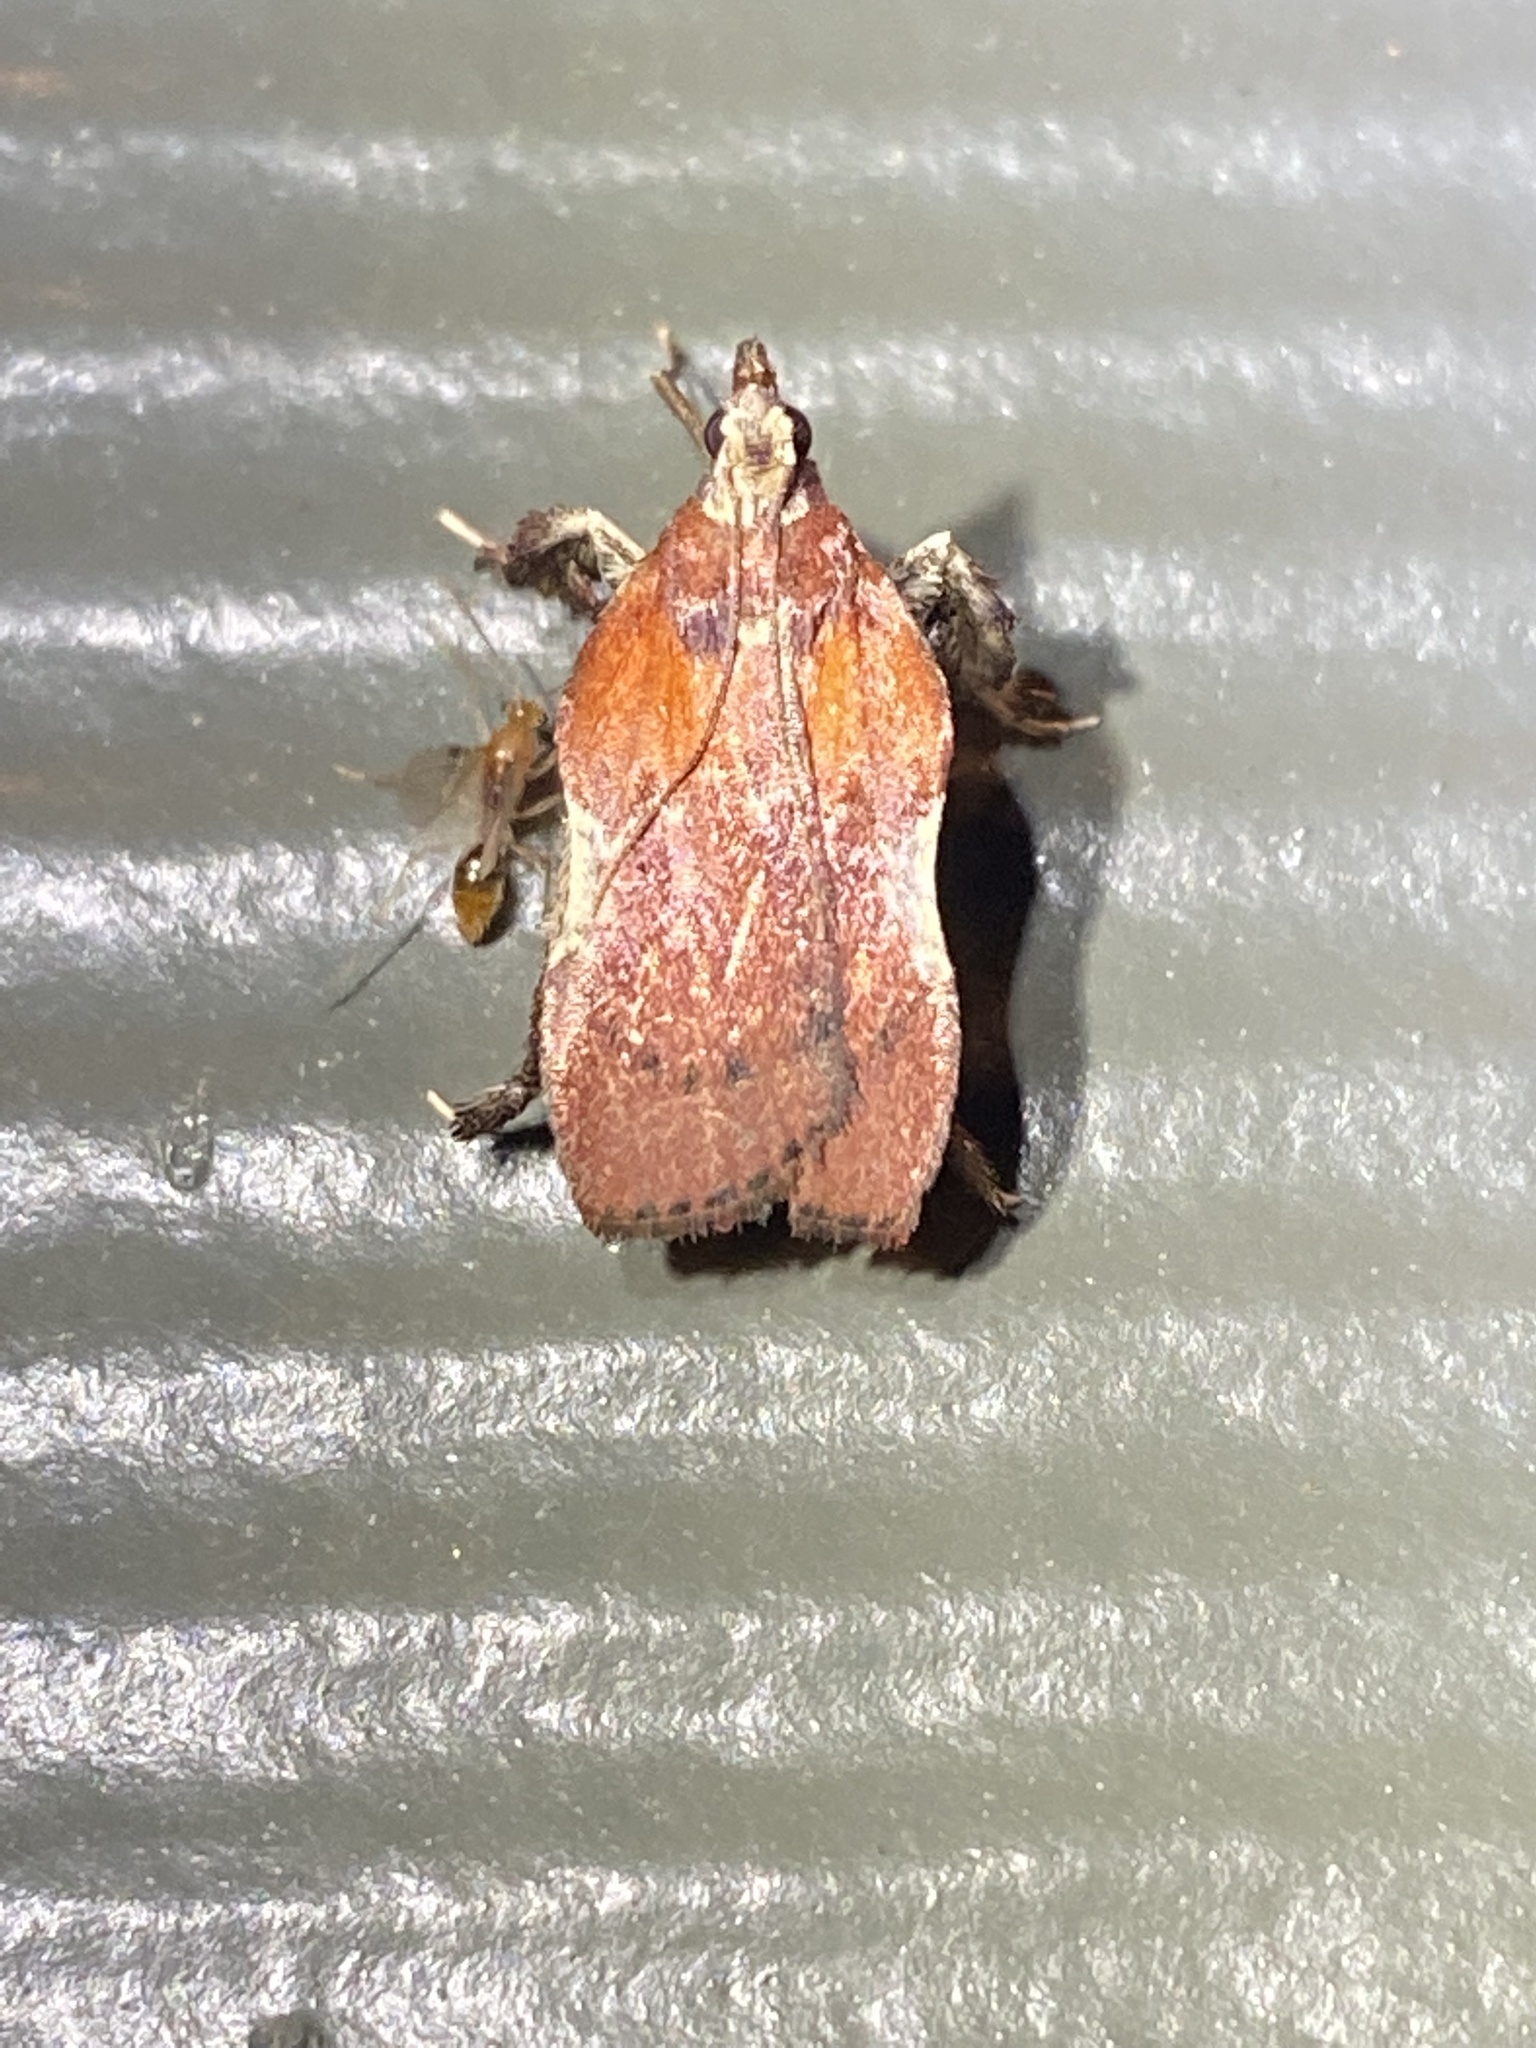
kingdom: Animalia
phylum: Arthropoda
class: Insecta
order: Lepidoptera
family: Pyralidae
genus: Galasa
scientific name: Galasa nigrinodis
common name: Boxwood leaftier moth
